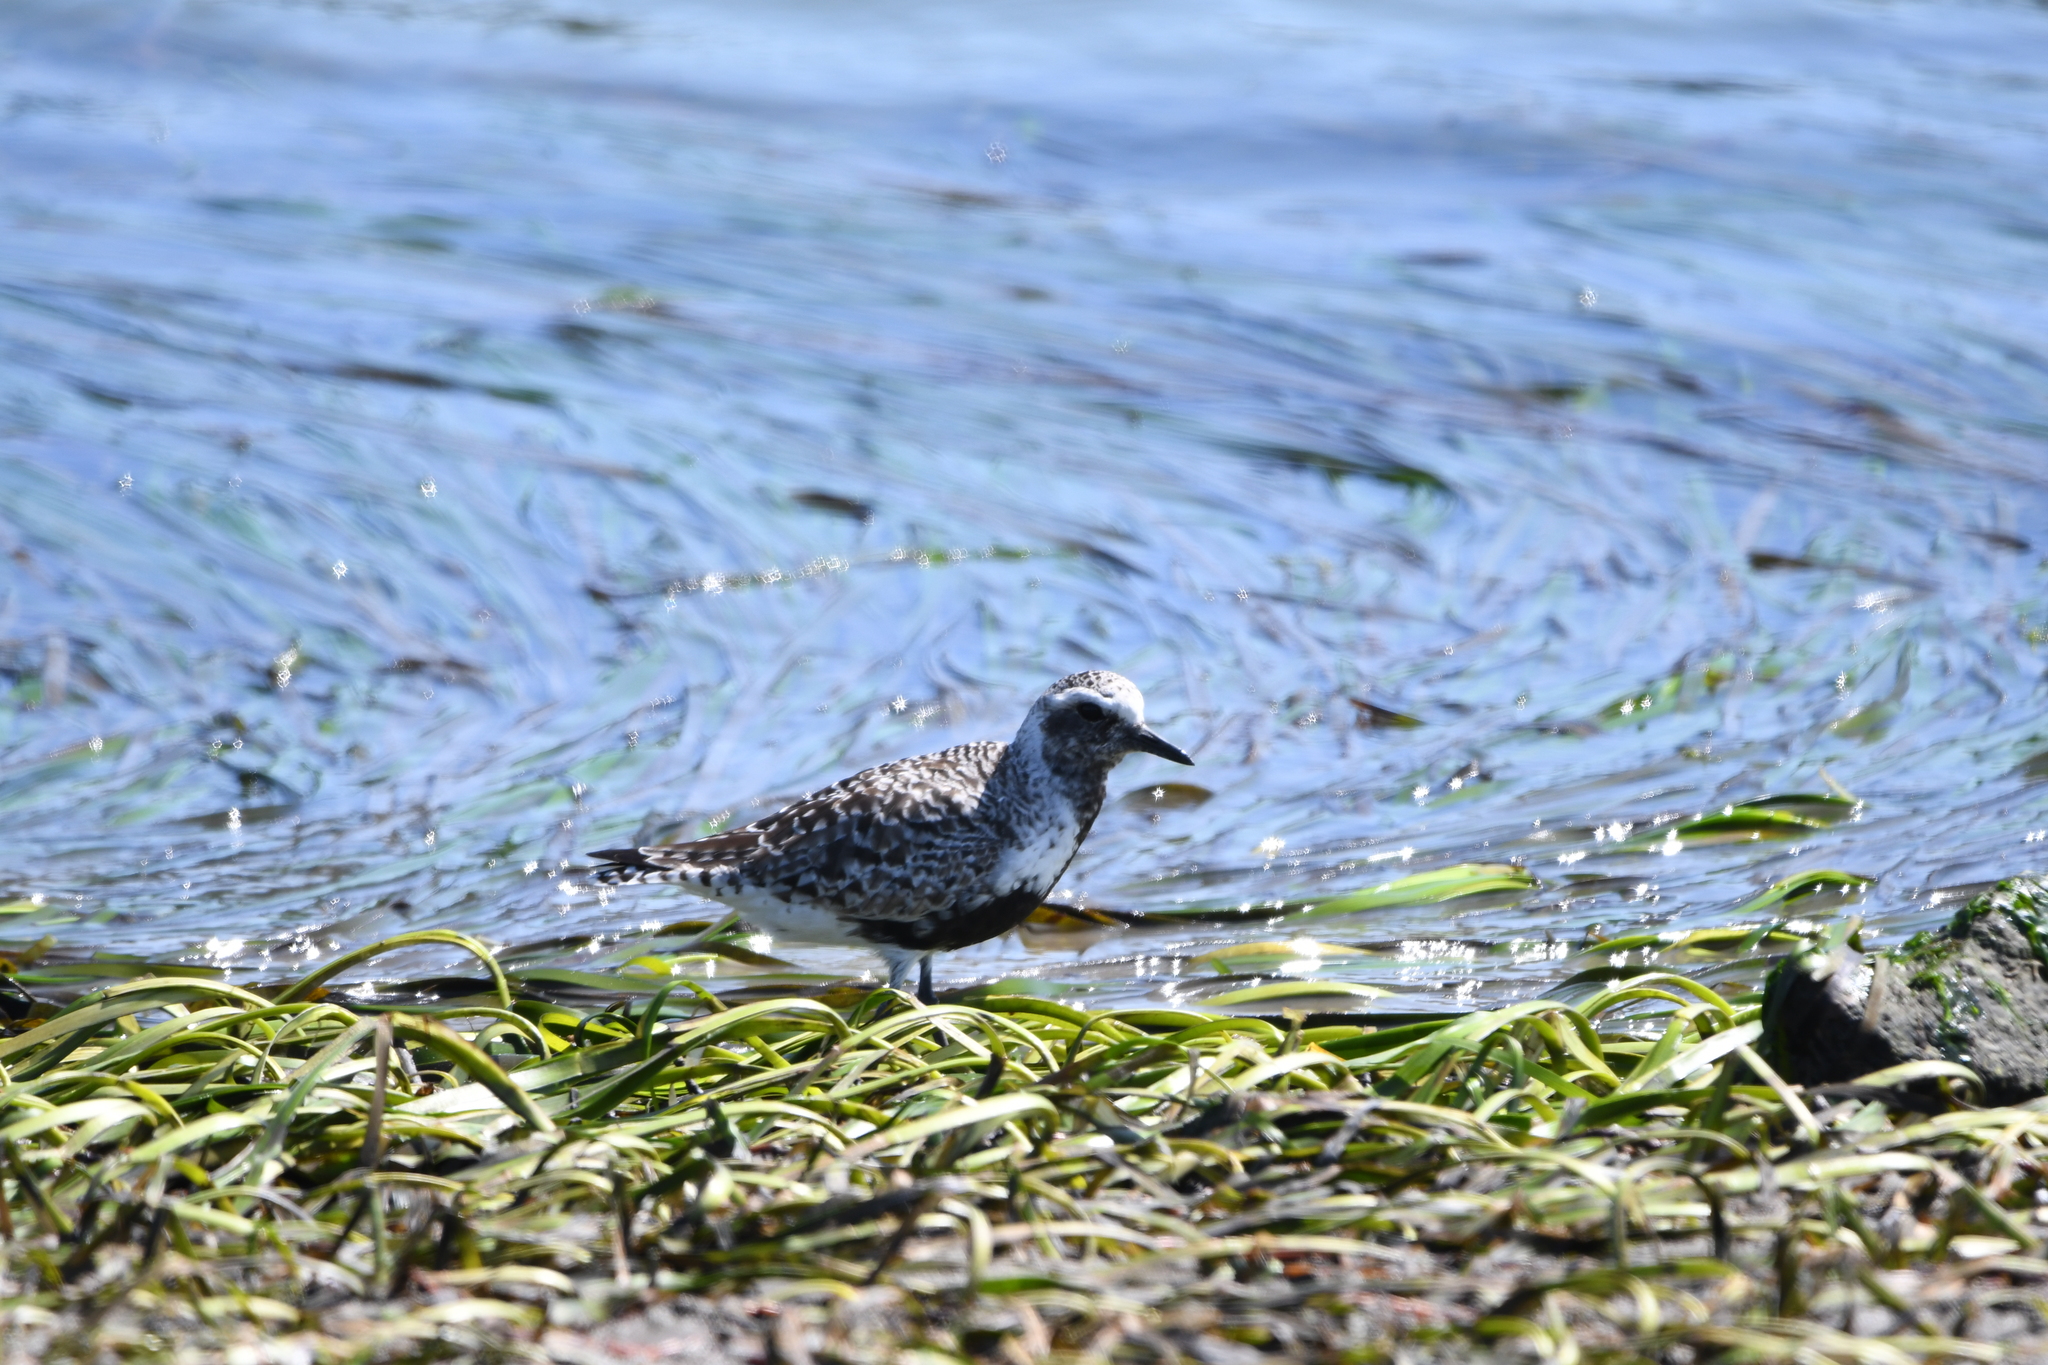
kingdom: Animalia
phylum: Chordata
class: Aves
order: Charadriiformes
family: Charadriidae
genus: Pluvialis
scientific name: Pluvialis squatarola
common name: Grey plover
